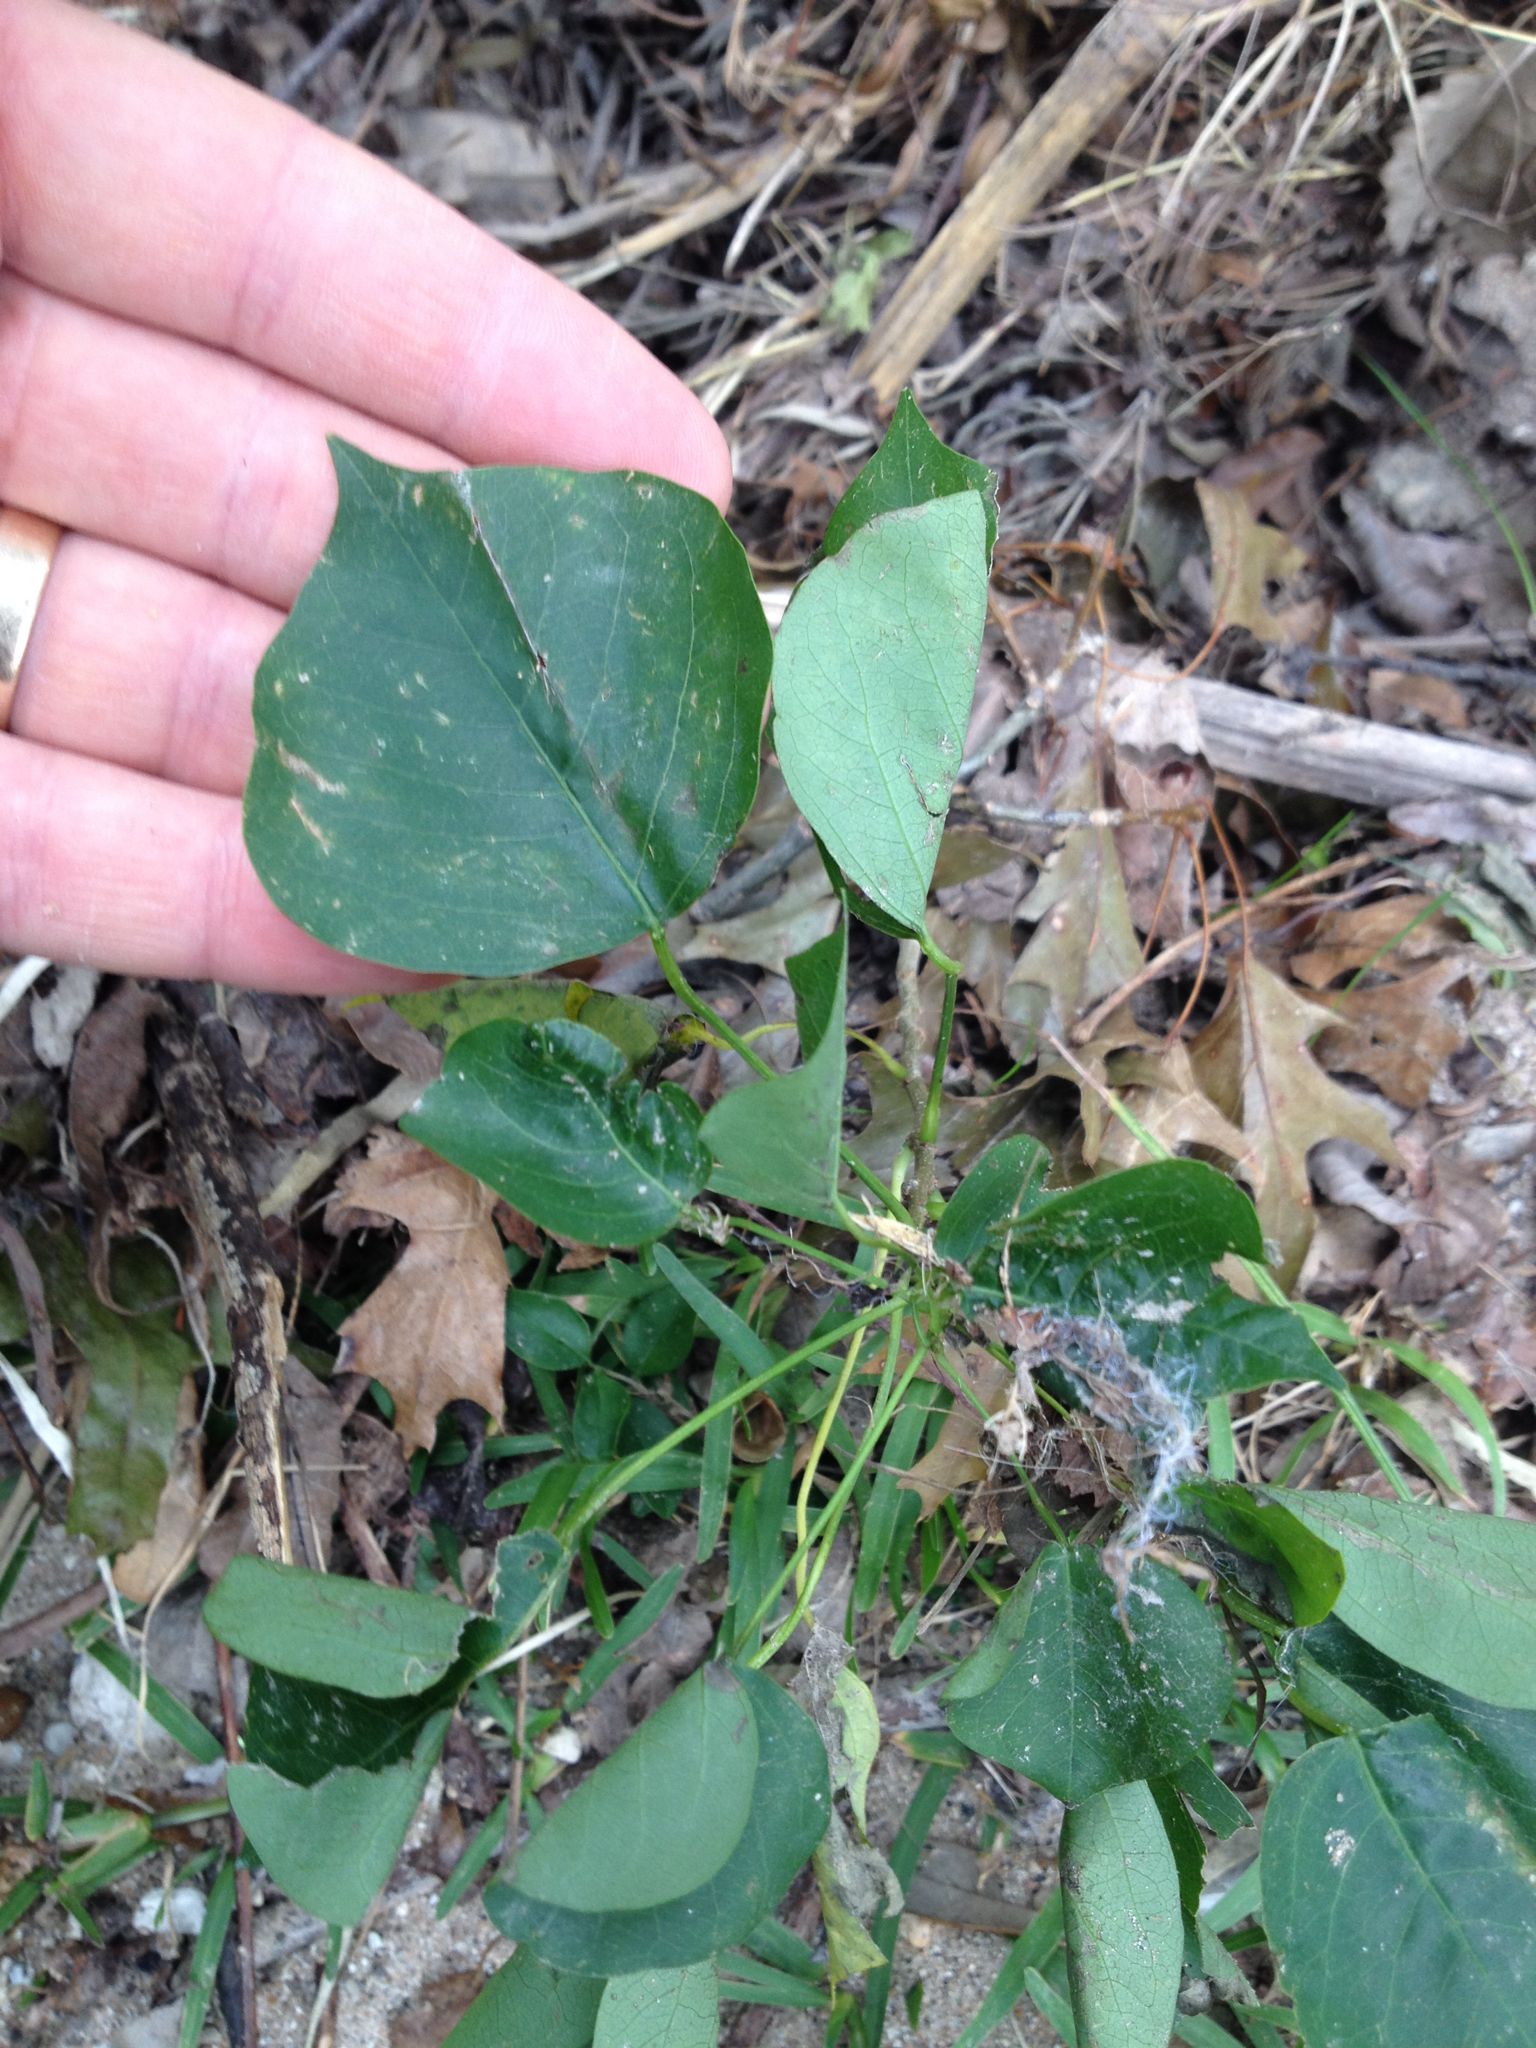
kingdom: Plantae
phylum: Tracheophyta
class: Magnoliopsida
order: Malpighiales
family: Euphorbiaceae
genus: Triadica
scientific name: Triadica sebifera
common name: Chinese tallow
